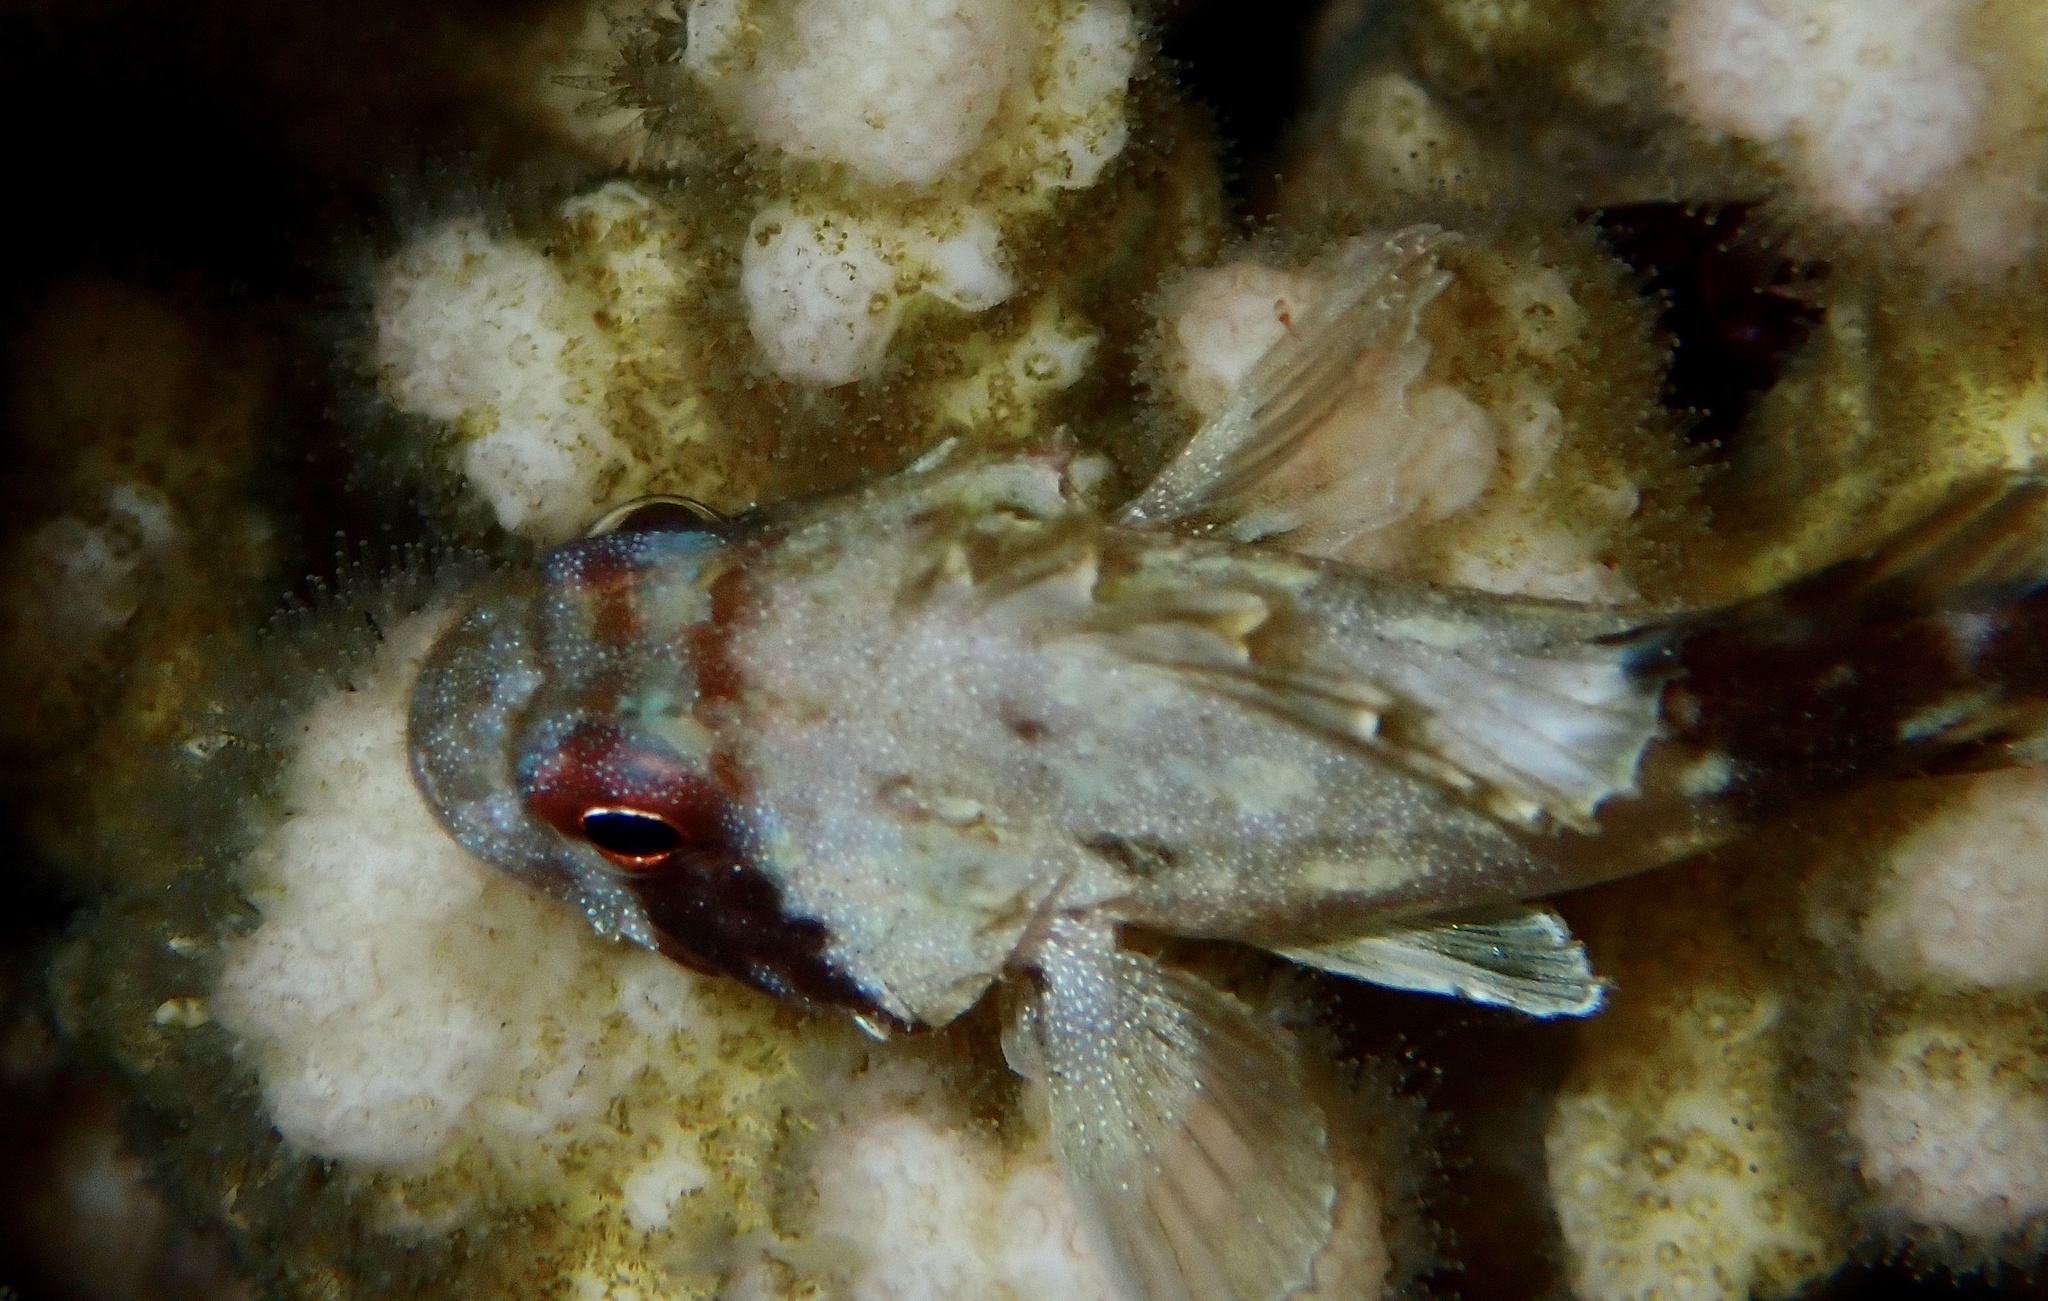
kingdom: Animalia
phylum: Chordata
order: Scorpaeniformes
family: Scorpaenidae
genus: Sebastapistes
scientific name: Sebastapistes cyanostigma
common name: Yellowspotted scorpionfish
